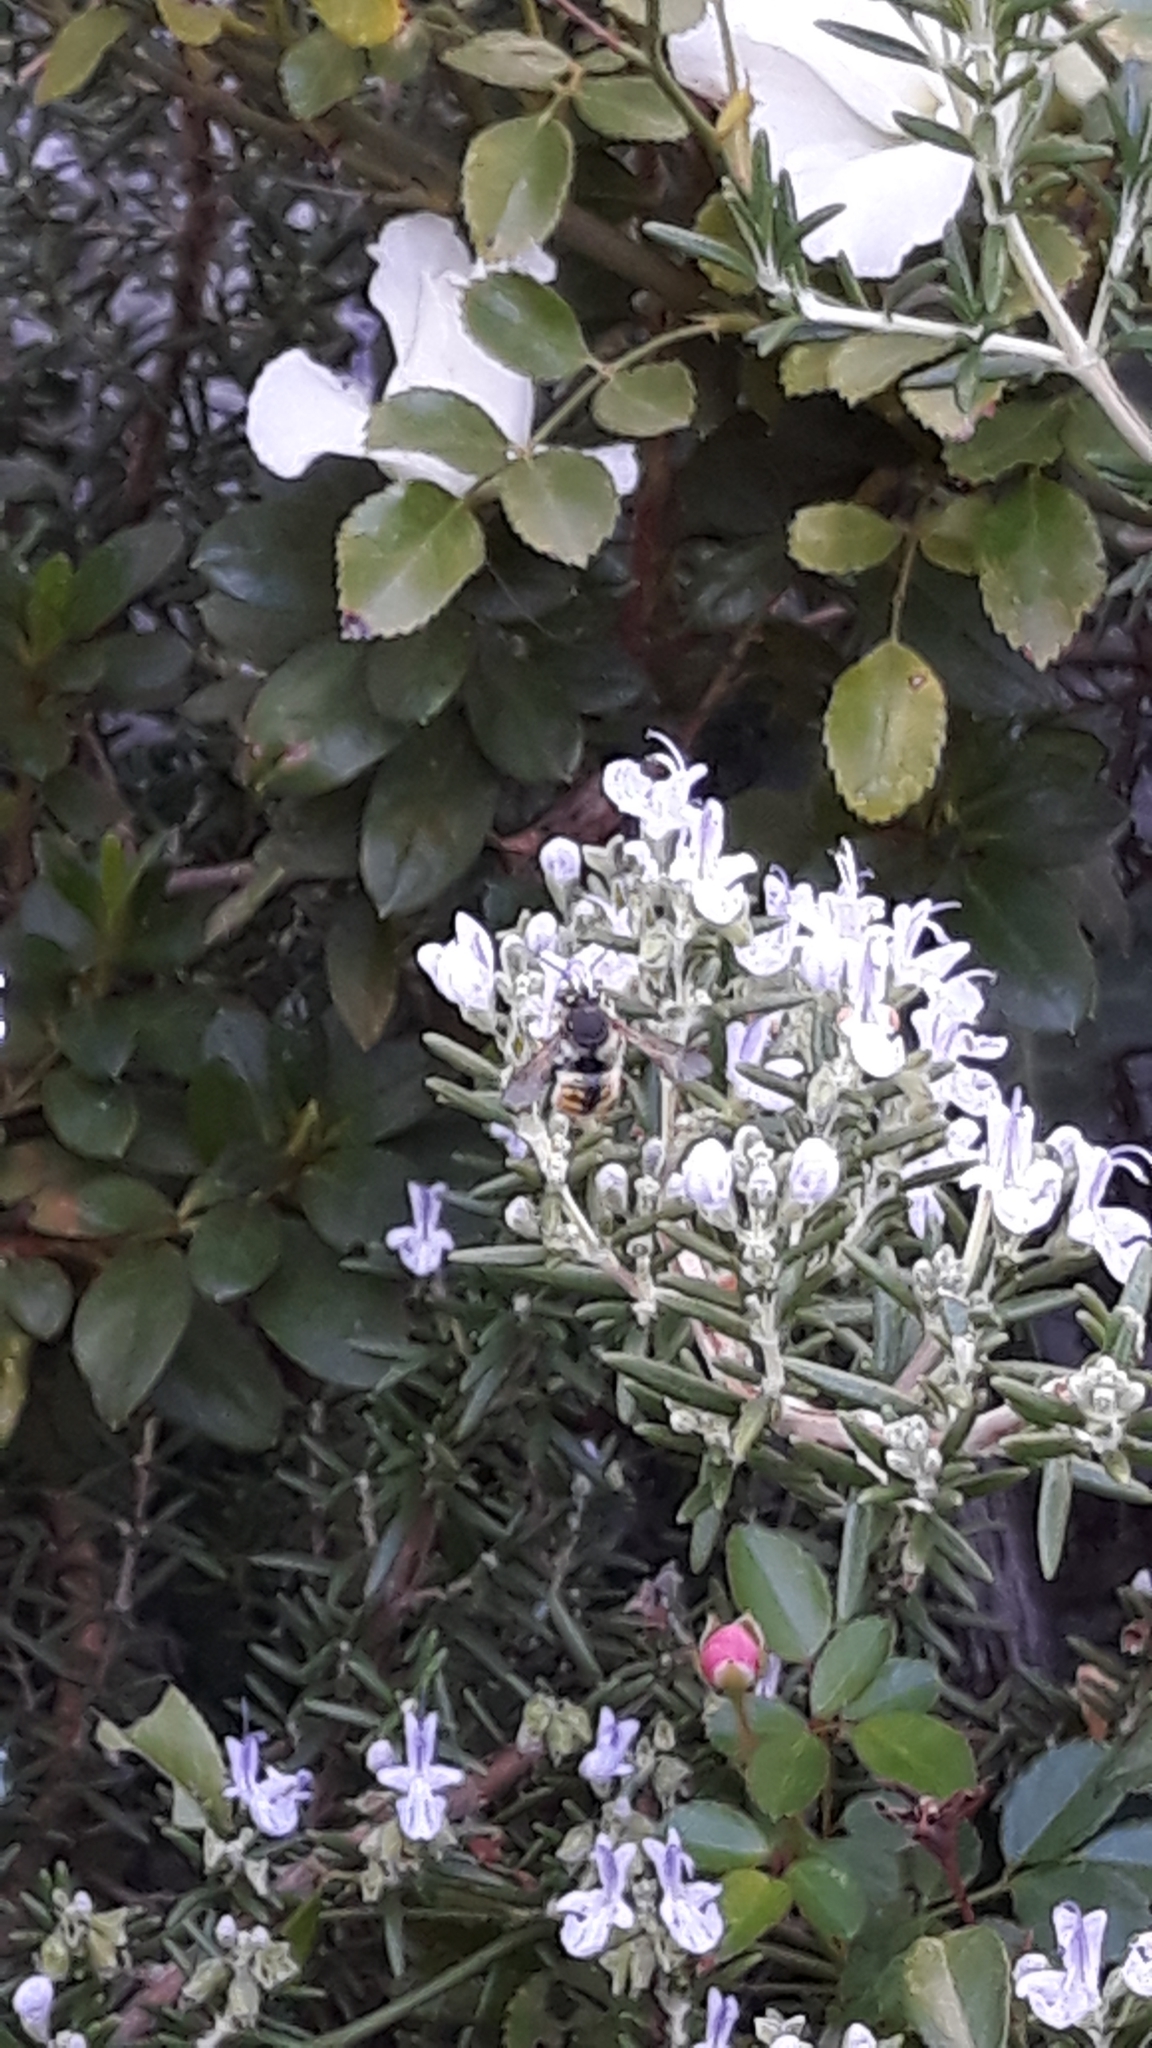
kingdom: Animalia
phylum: Arthropoda
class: Insecta
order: Hymenoptera
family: Megachilidae
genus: Anthidium
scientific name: Anthidium manicatum
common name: Wool carder bee
